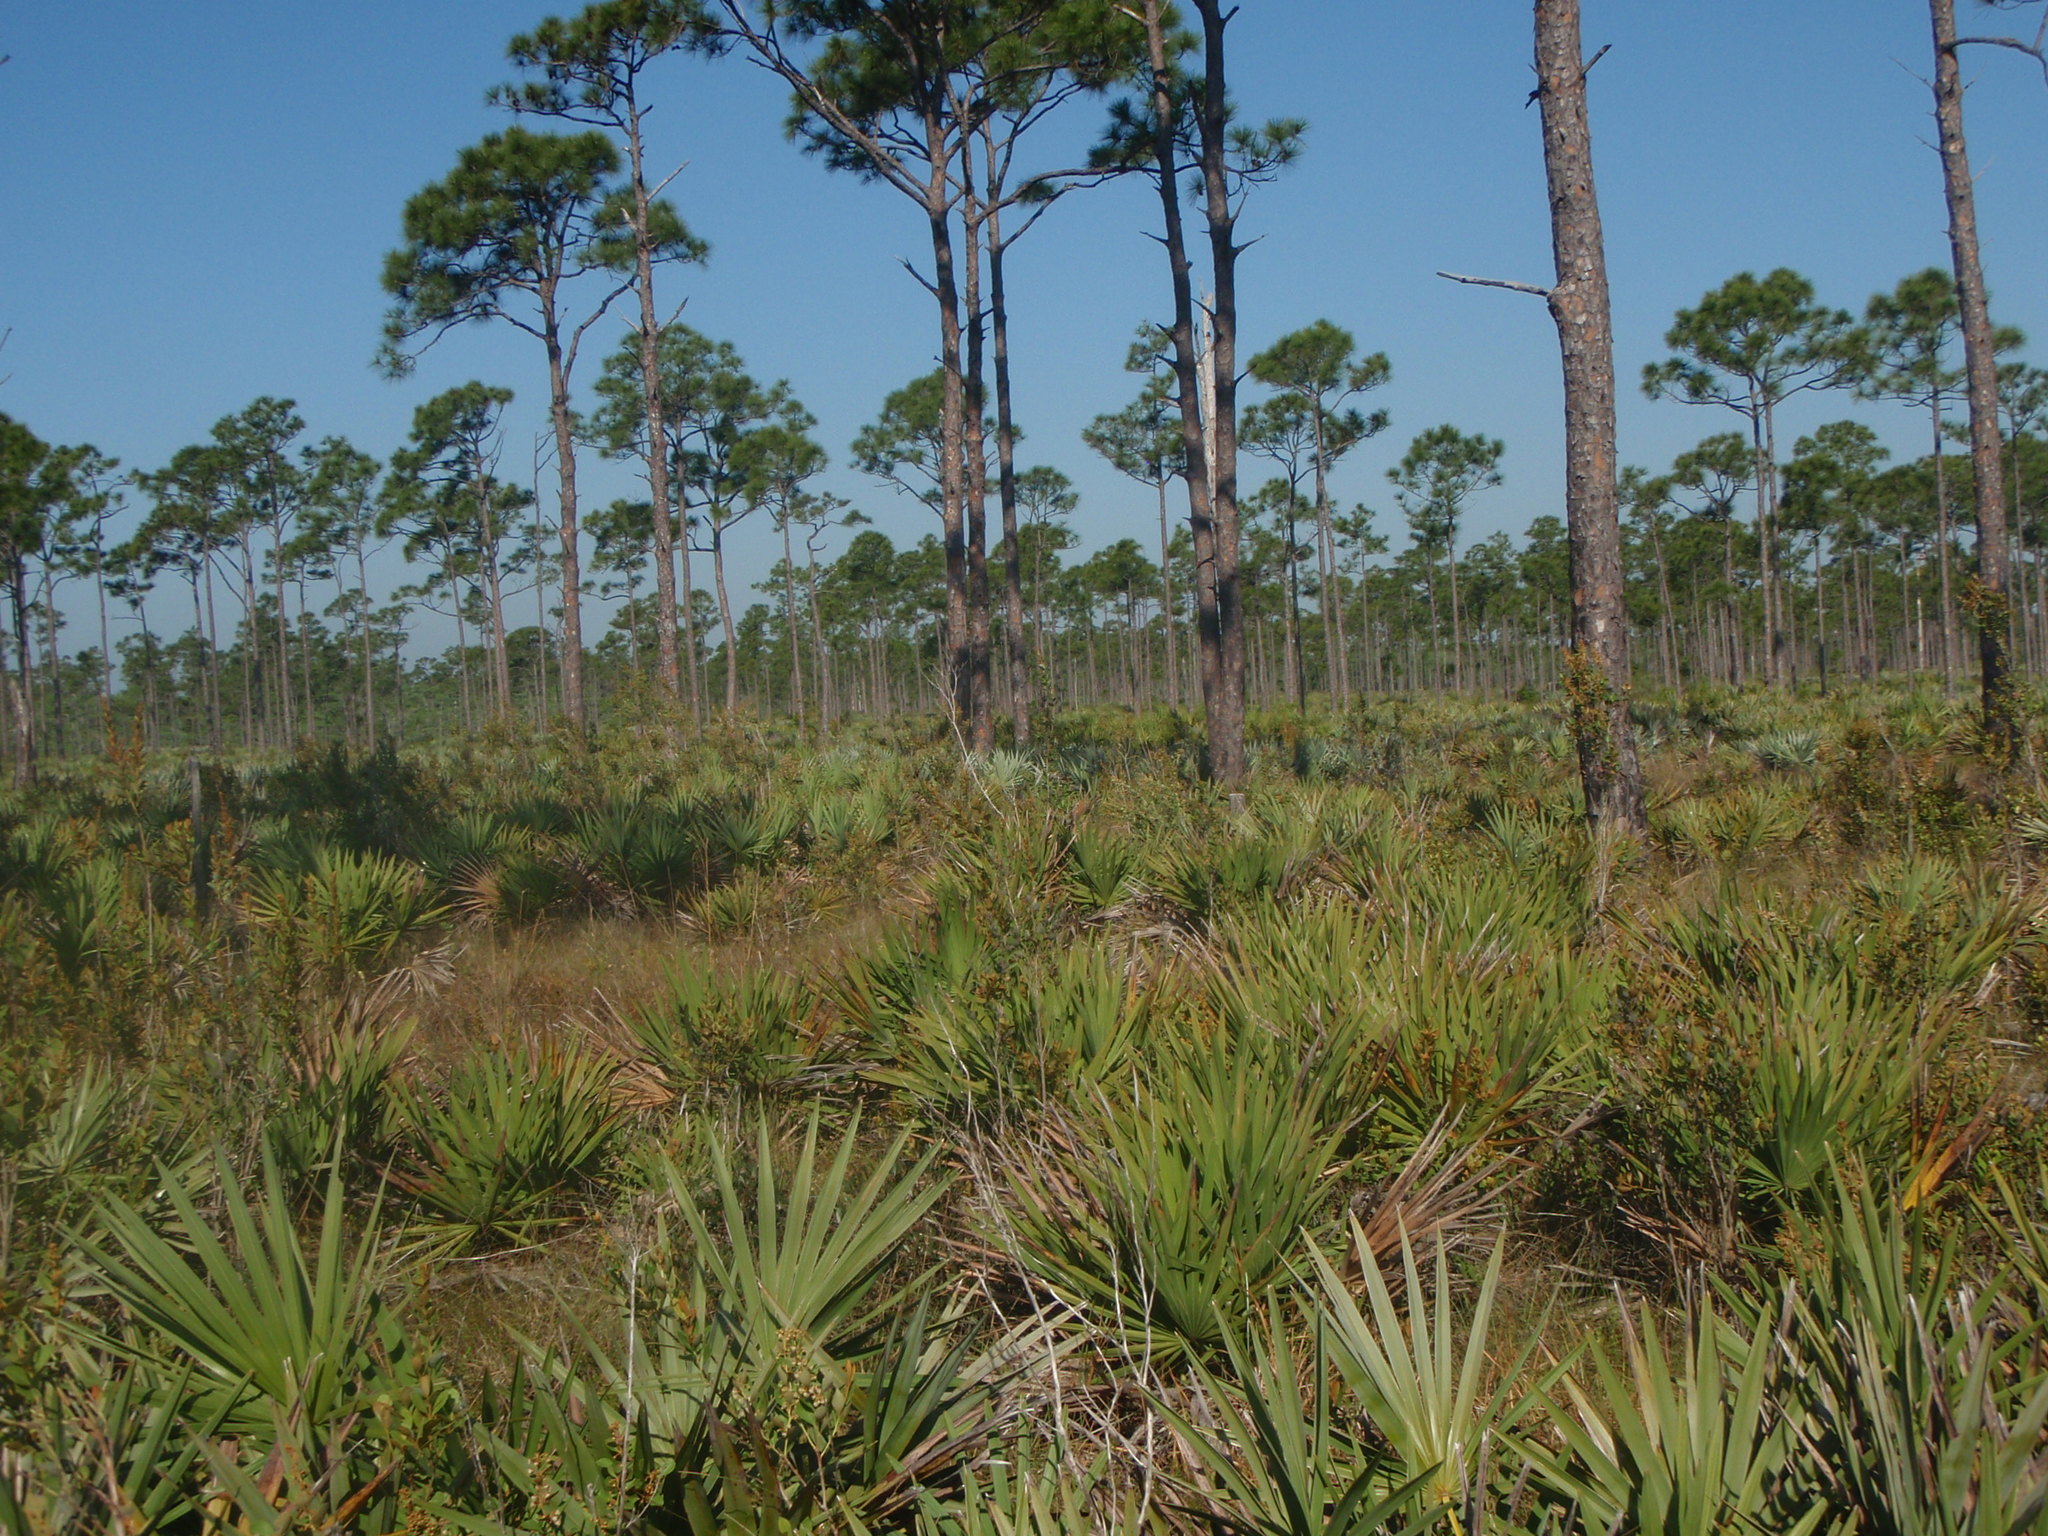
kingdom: Plantae
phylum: Tracheophyta
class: Liliopsida
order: Arecales
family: Arecaceae
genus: Serenoa
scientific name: Serenoa repens
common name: Saw-palmetto
